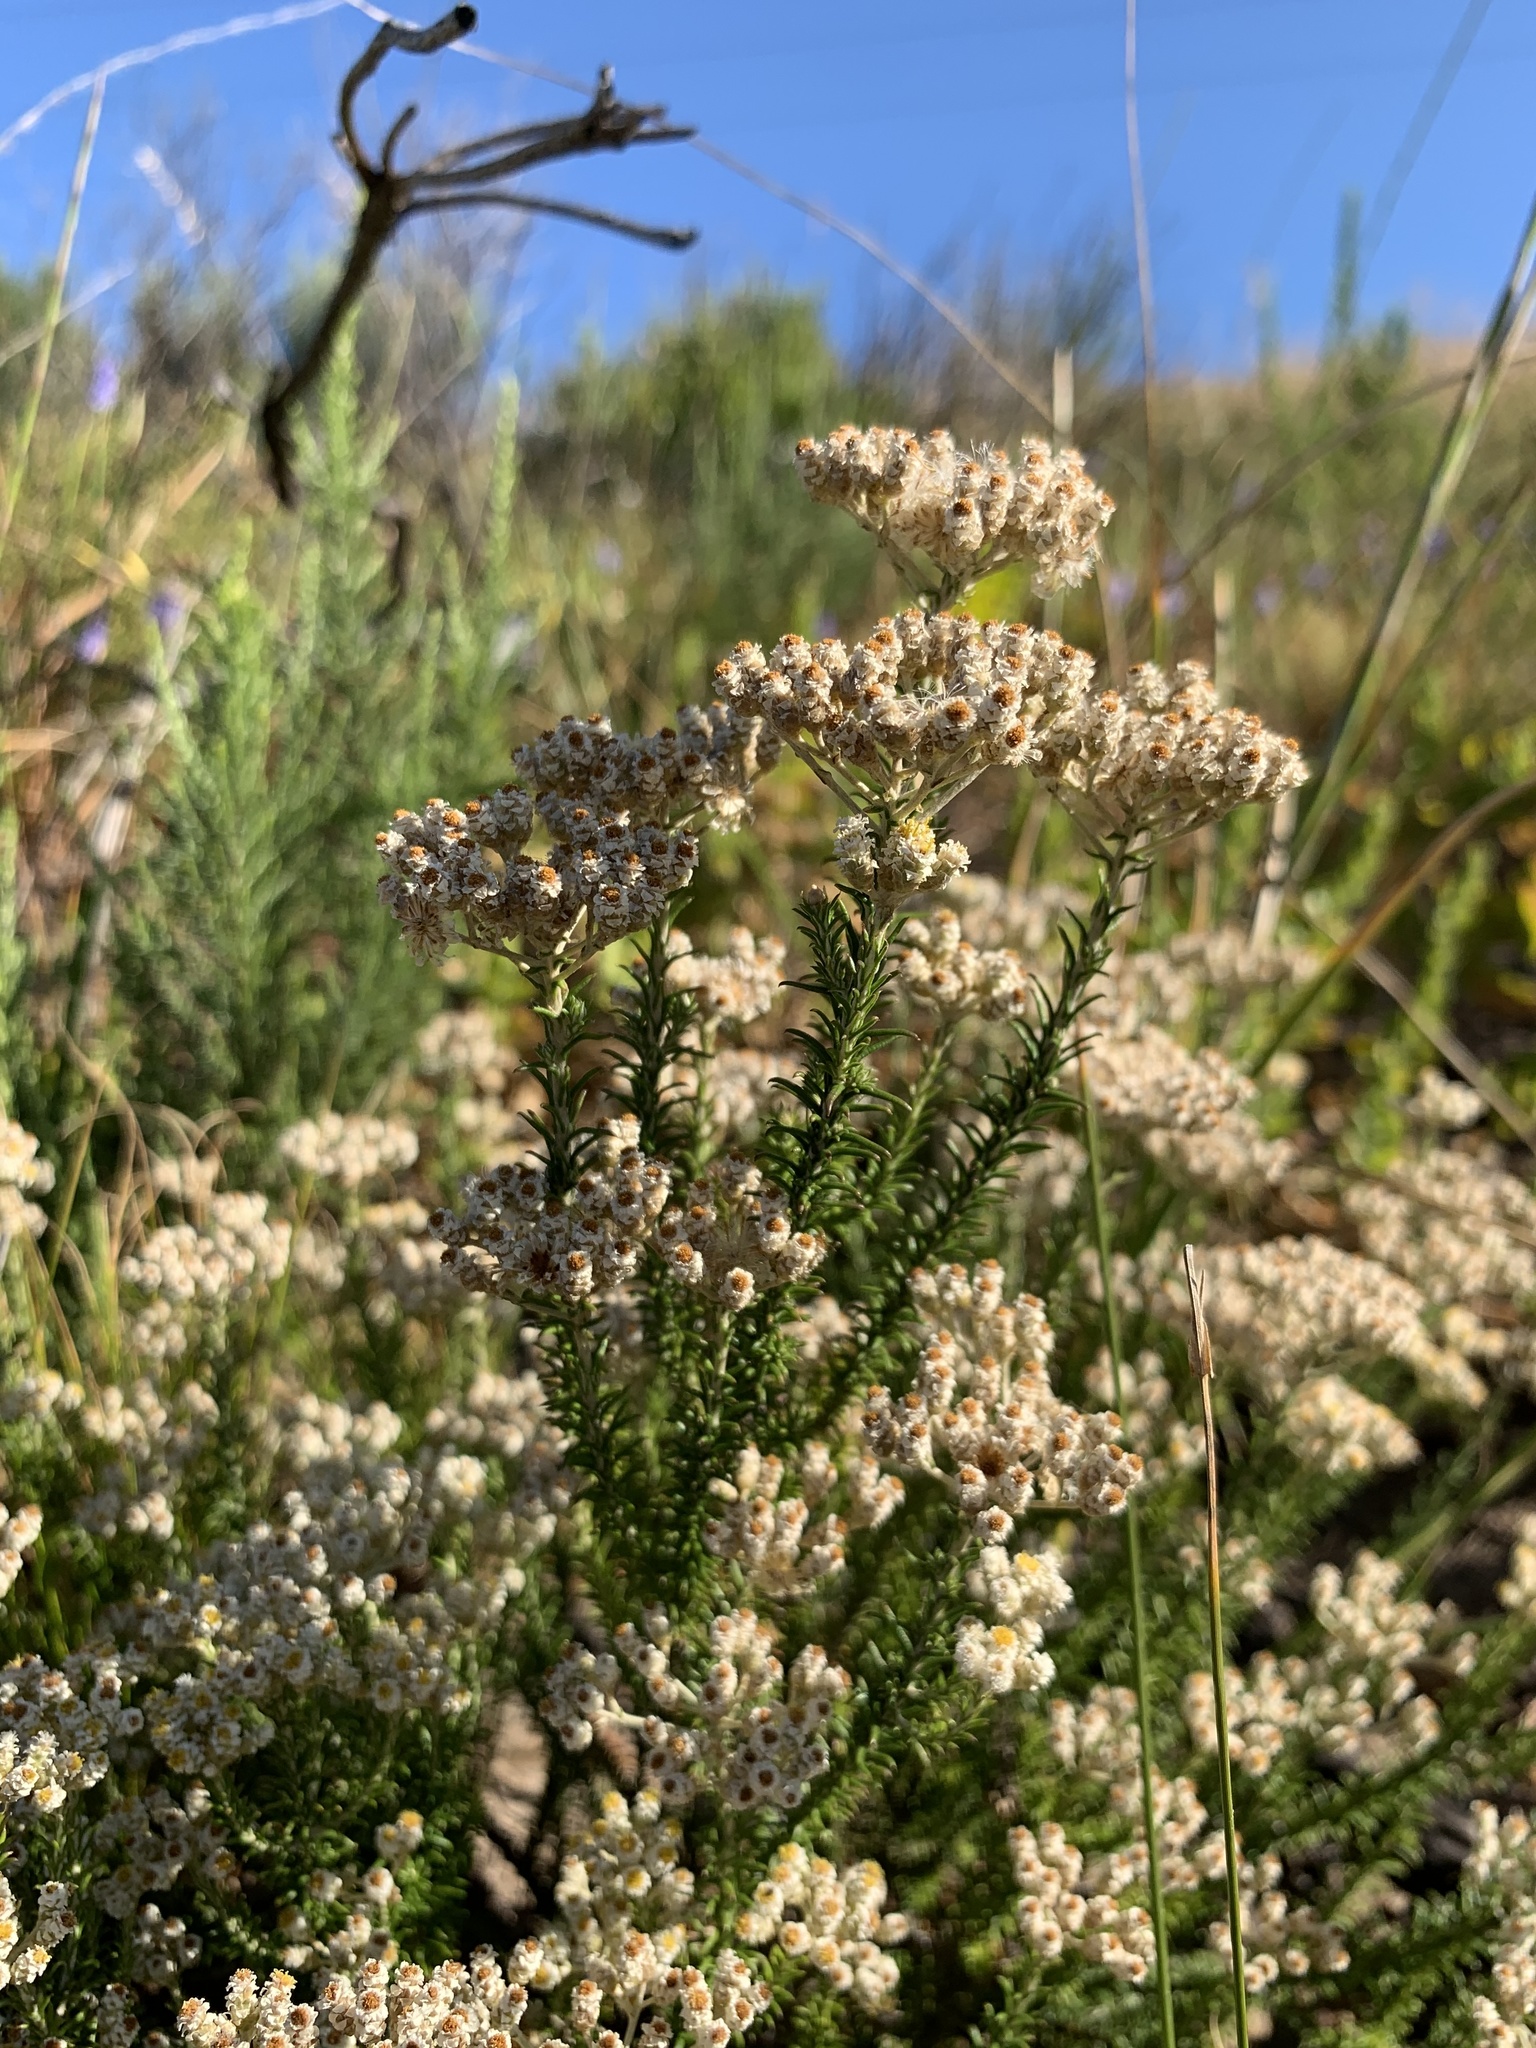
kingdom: Plantae
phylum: Tracheophyta
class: Magnoliopsida
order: Asterales
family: Asteraceae
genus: Helichrysum
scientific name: Helichrysum teretifolium
